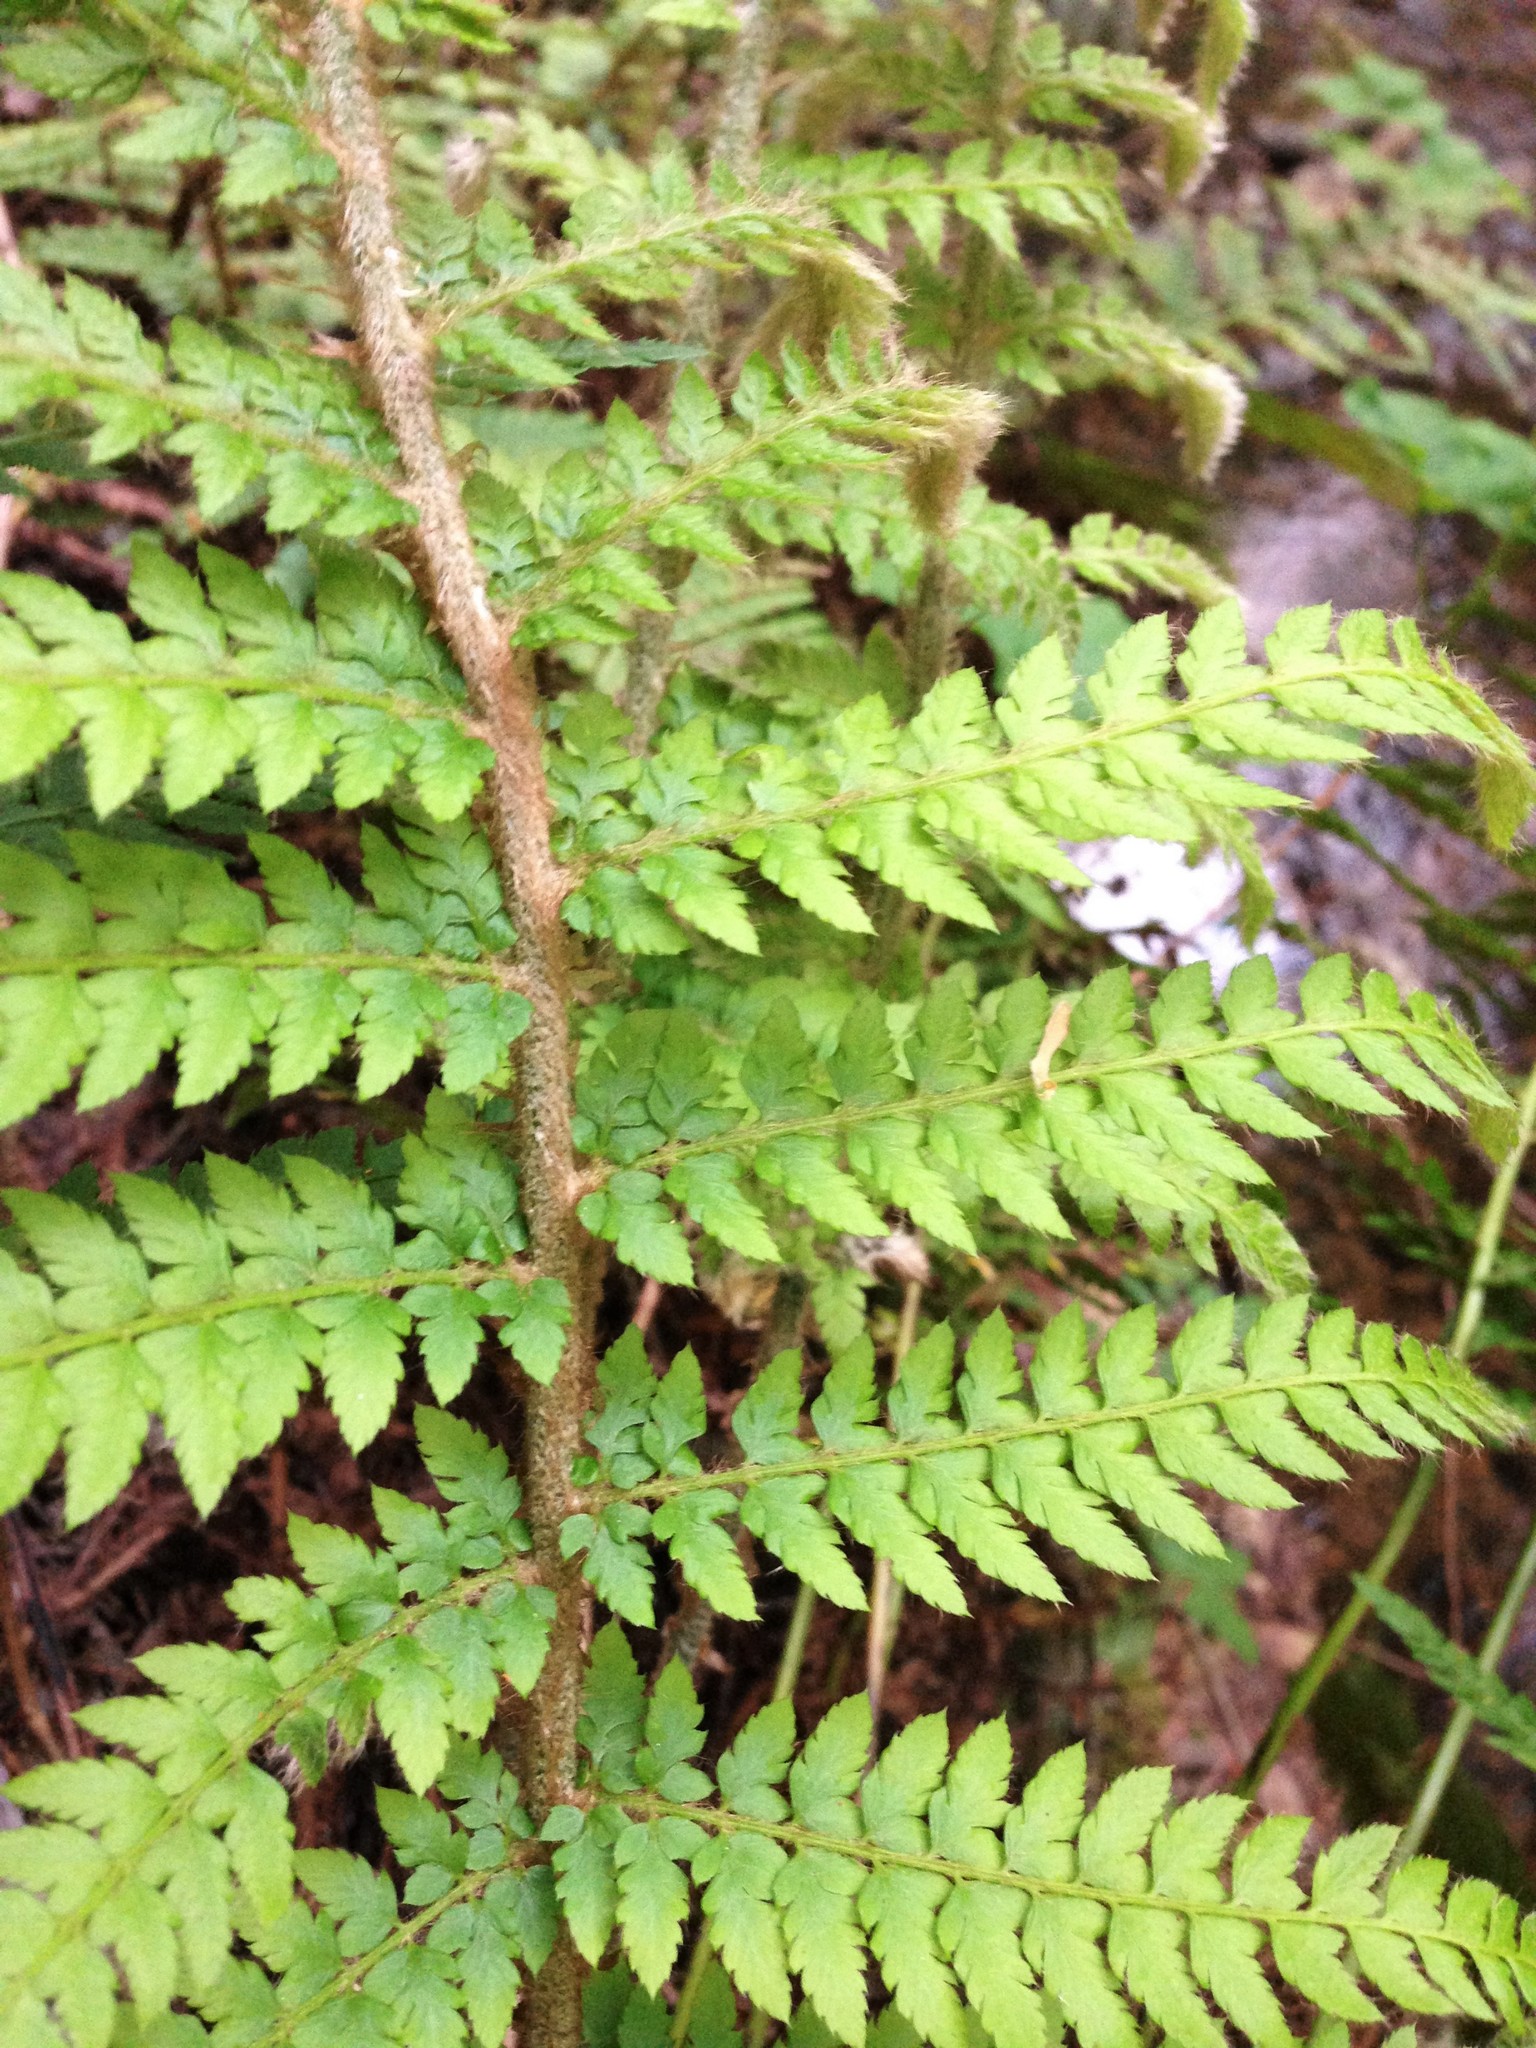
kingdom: Plantae
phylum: Tracheophyta
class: Polypodiopsida
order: Polypodiales
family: Dryopteridaceae
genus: Polystichum
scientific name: Polystichum dudleyi
